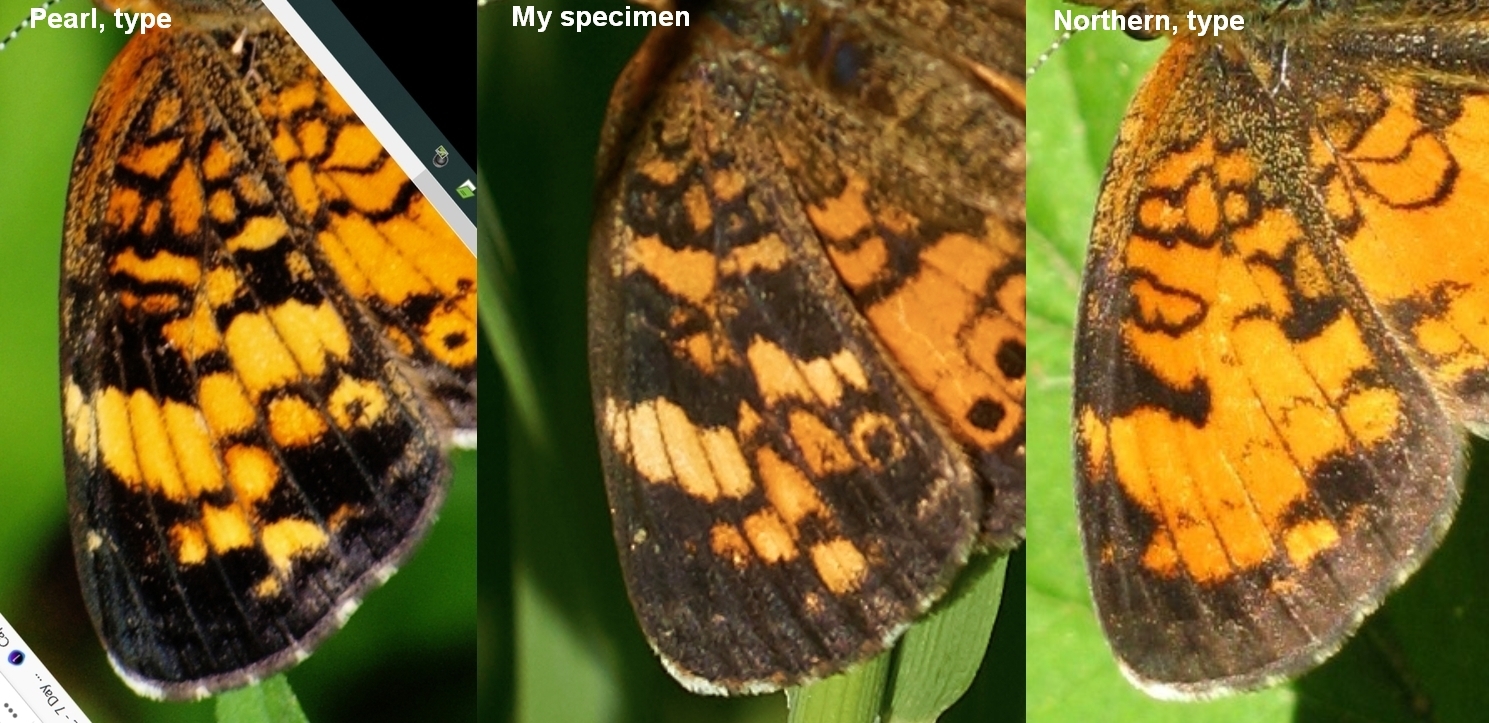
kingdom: Animalia
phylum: Arthropoda
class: Insecta
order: Lepidoptera
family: Nymphalidae
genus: Phyciodes
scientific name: Phyciodes tharos
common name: Pearl crescent
